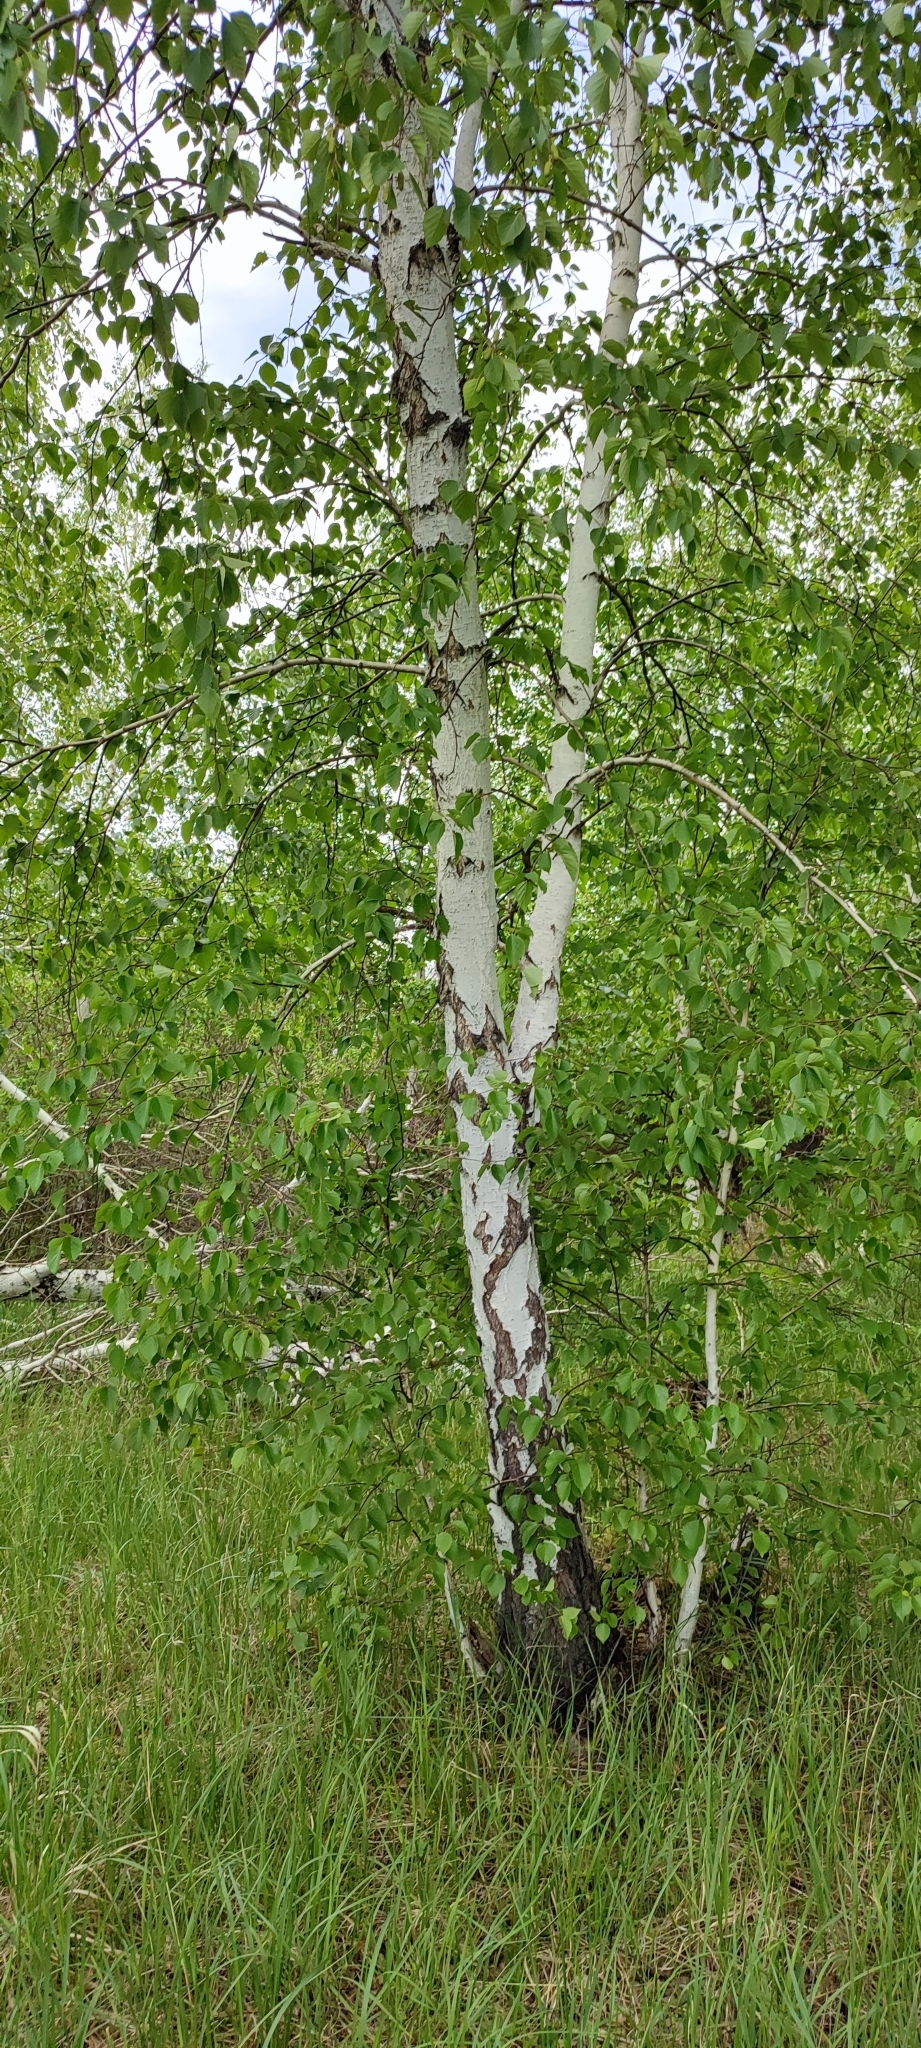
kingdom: Plantae
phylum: Tracheophyta
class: Magnoliopsida
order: Fagales
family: Betulaceae
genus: Betula
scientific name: Betula pendula
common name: Silver birch
